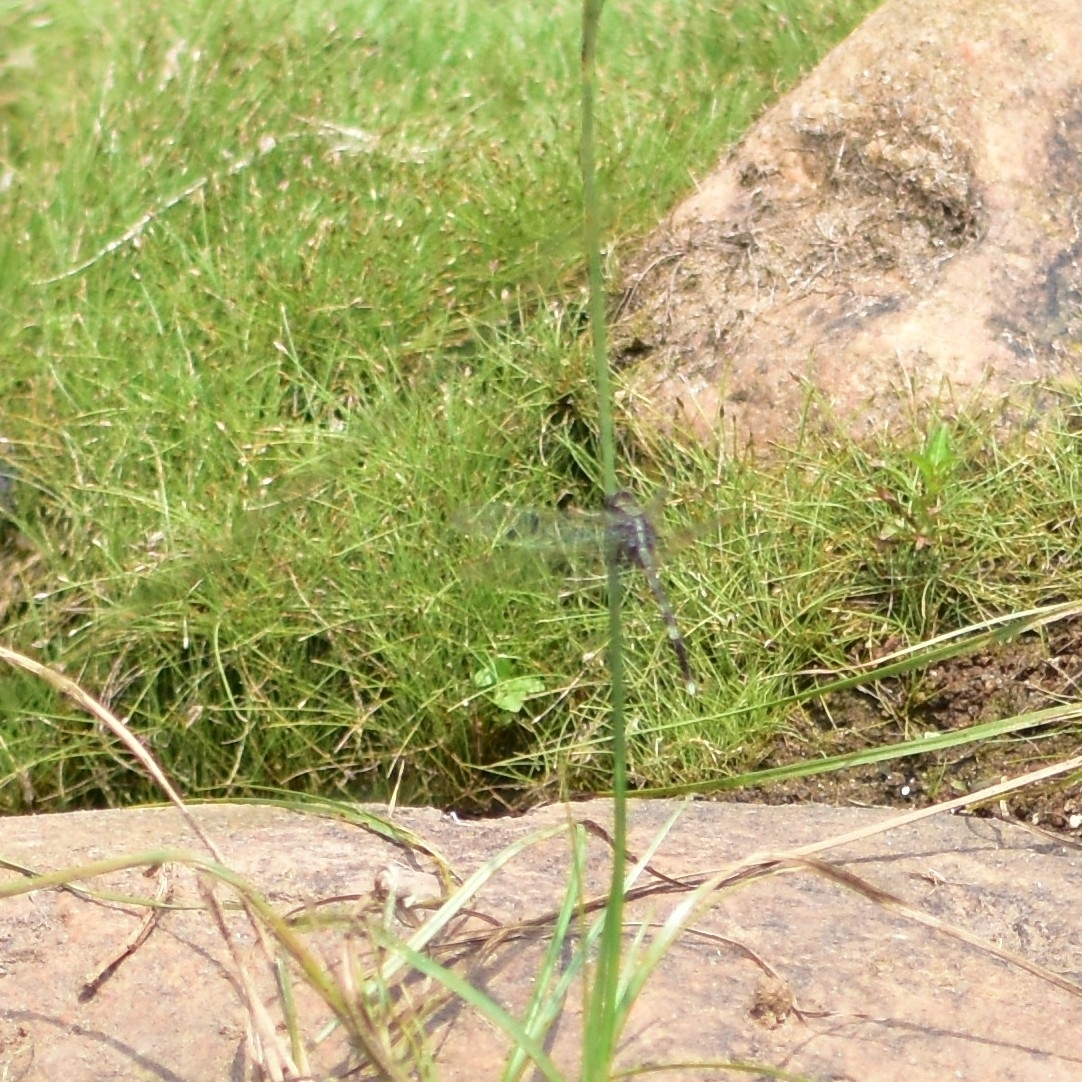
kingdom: Animalia
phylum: Arthropoda
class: Insecta
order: Odonata
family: Libellulidae
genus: Orthetrum
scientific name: Orthetrum sabina
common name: Slender skimmer
